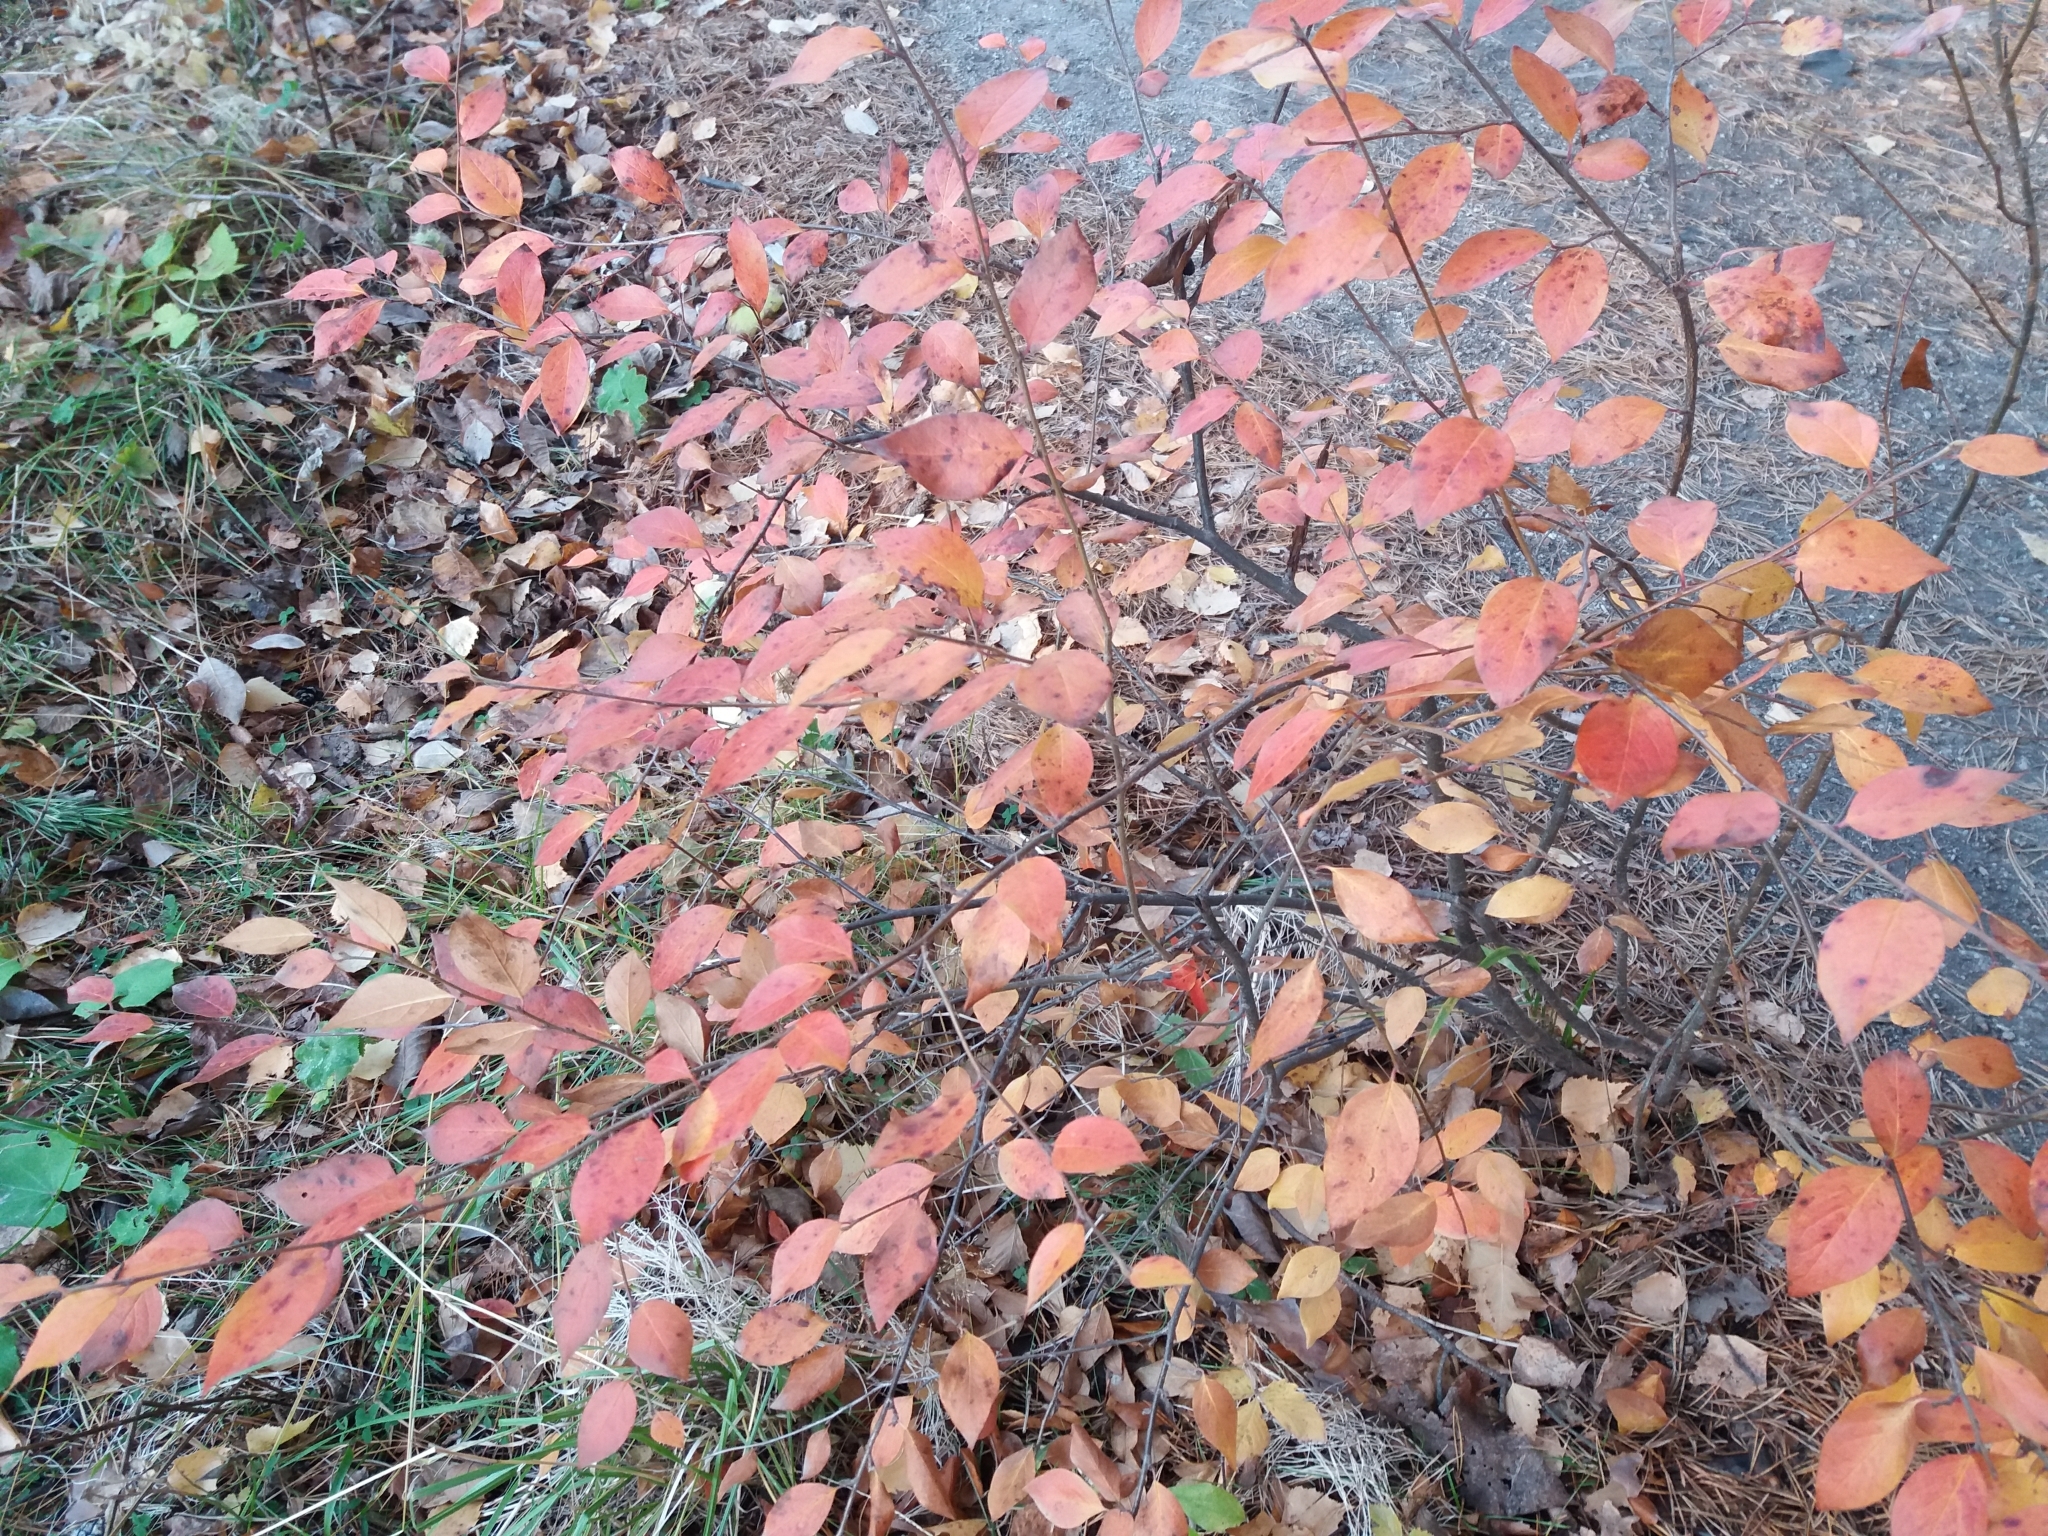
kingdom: Plantae
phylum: Tracheophyta
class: Magnoliopsida
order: Rosales
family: Rosaceae
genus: Cotoneaster
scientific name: Cotoneaster acutifolius
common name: Peking cotoneaster
